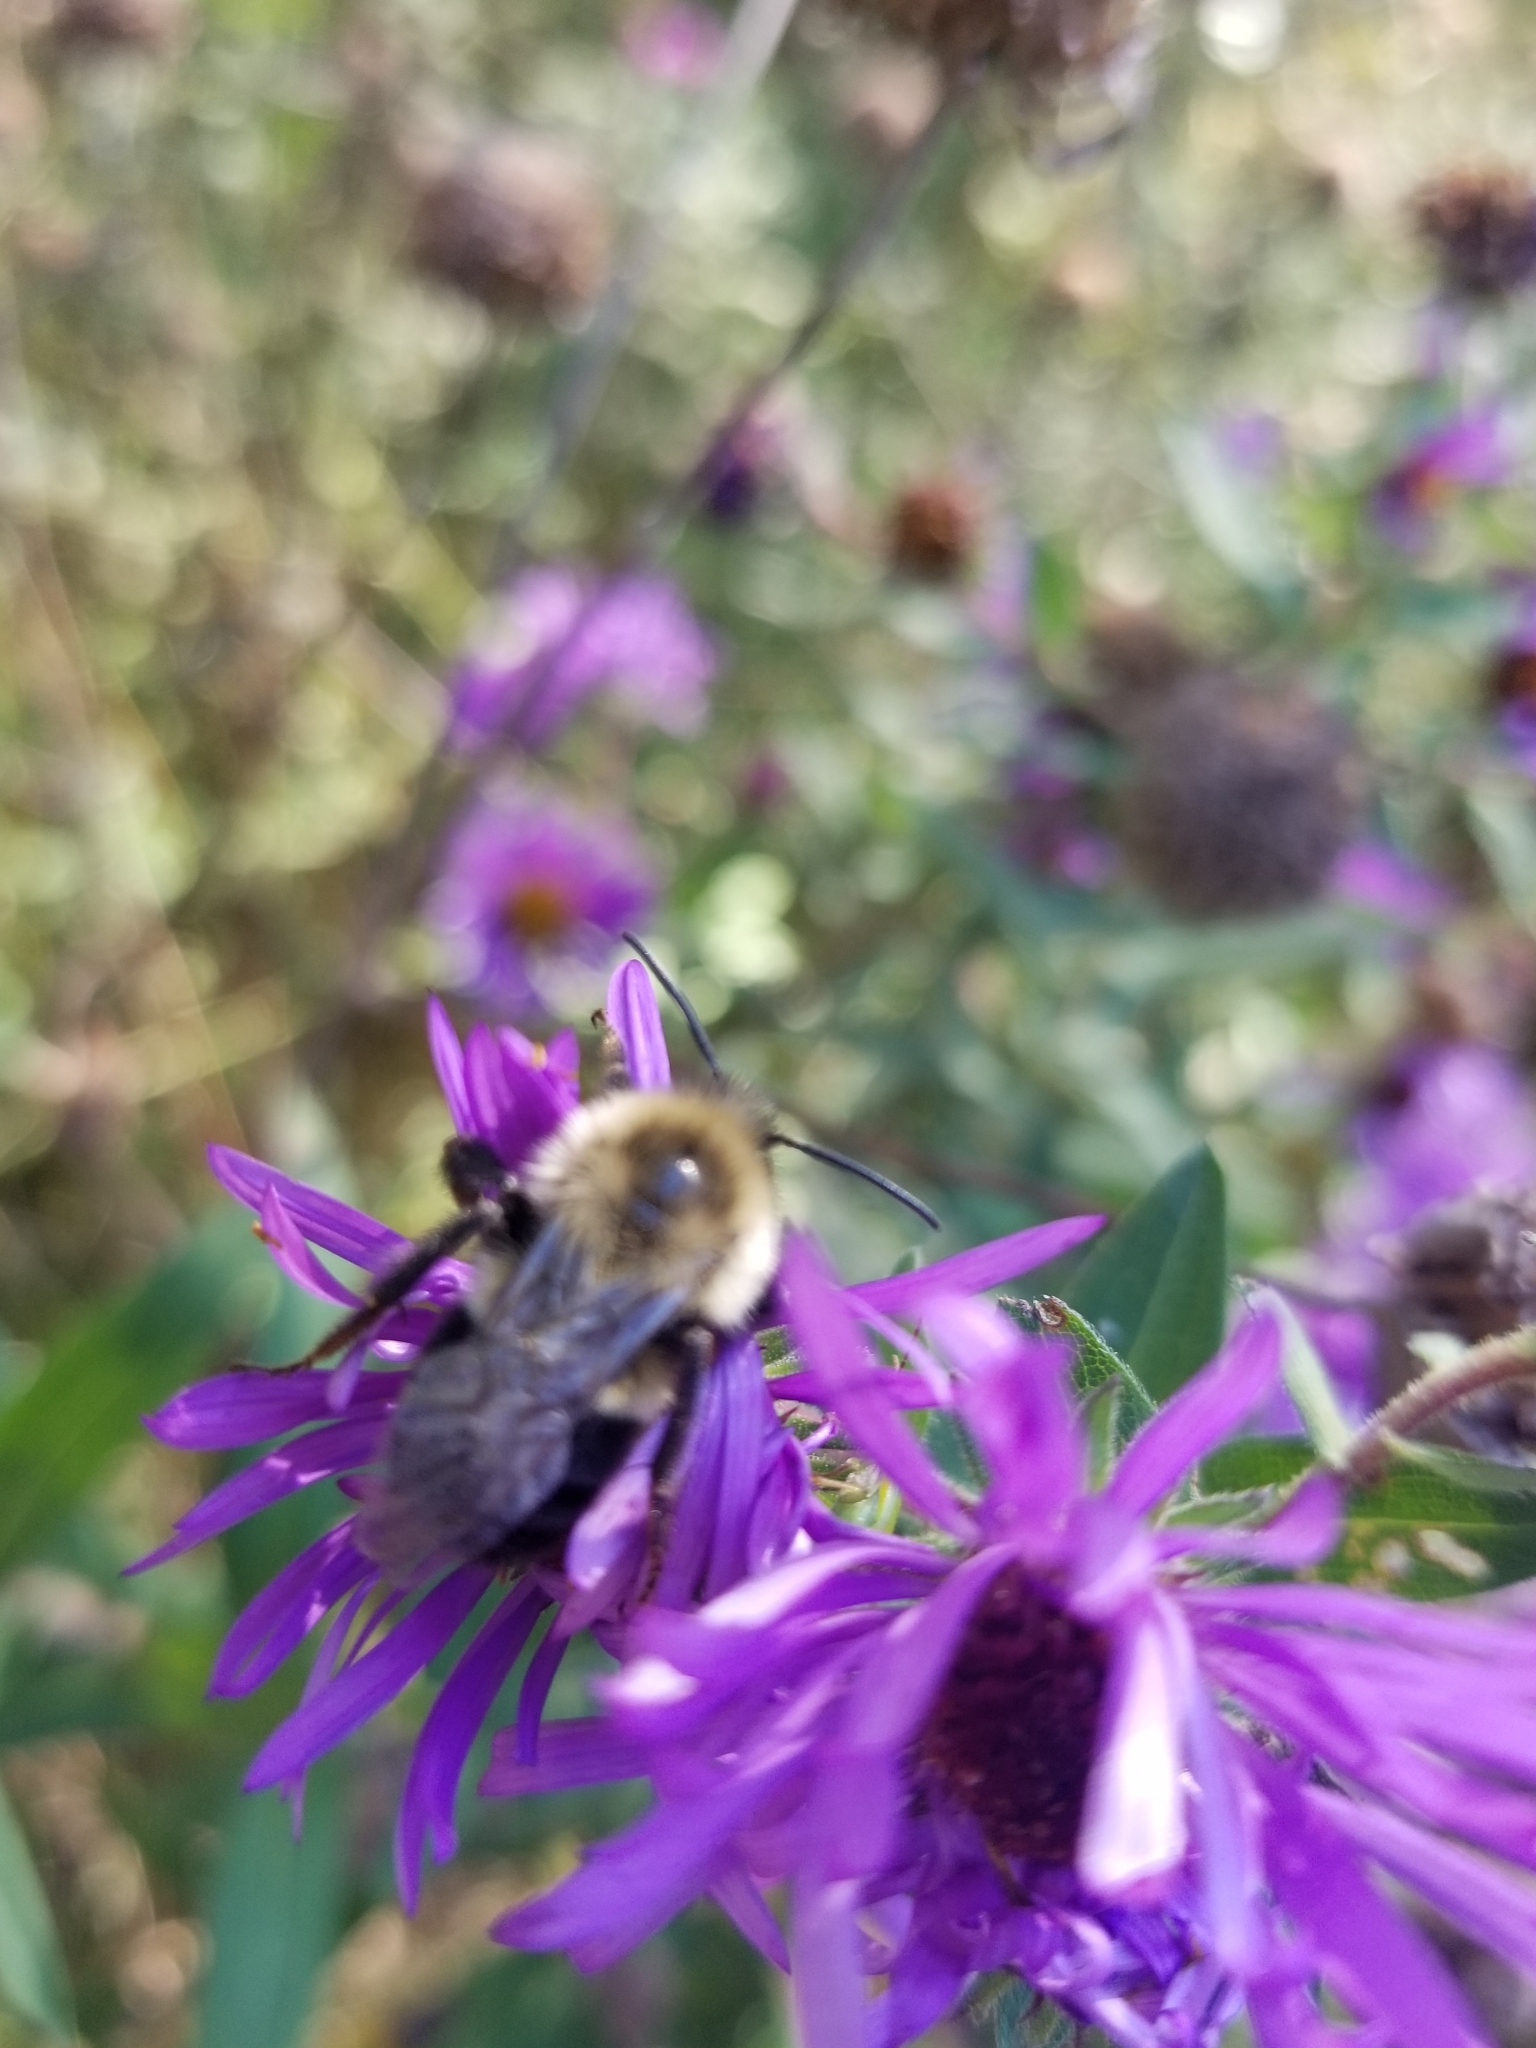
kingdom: Animalia
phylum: Arthropoda
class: Insecta
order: Hymenoptera
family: Apidae
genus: Bombus
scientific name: Bombus impatiens
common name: Common eastern bumble bee
